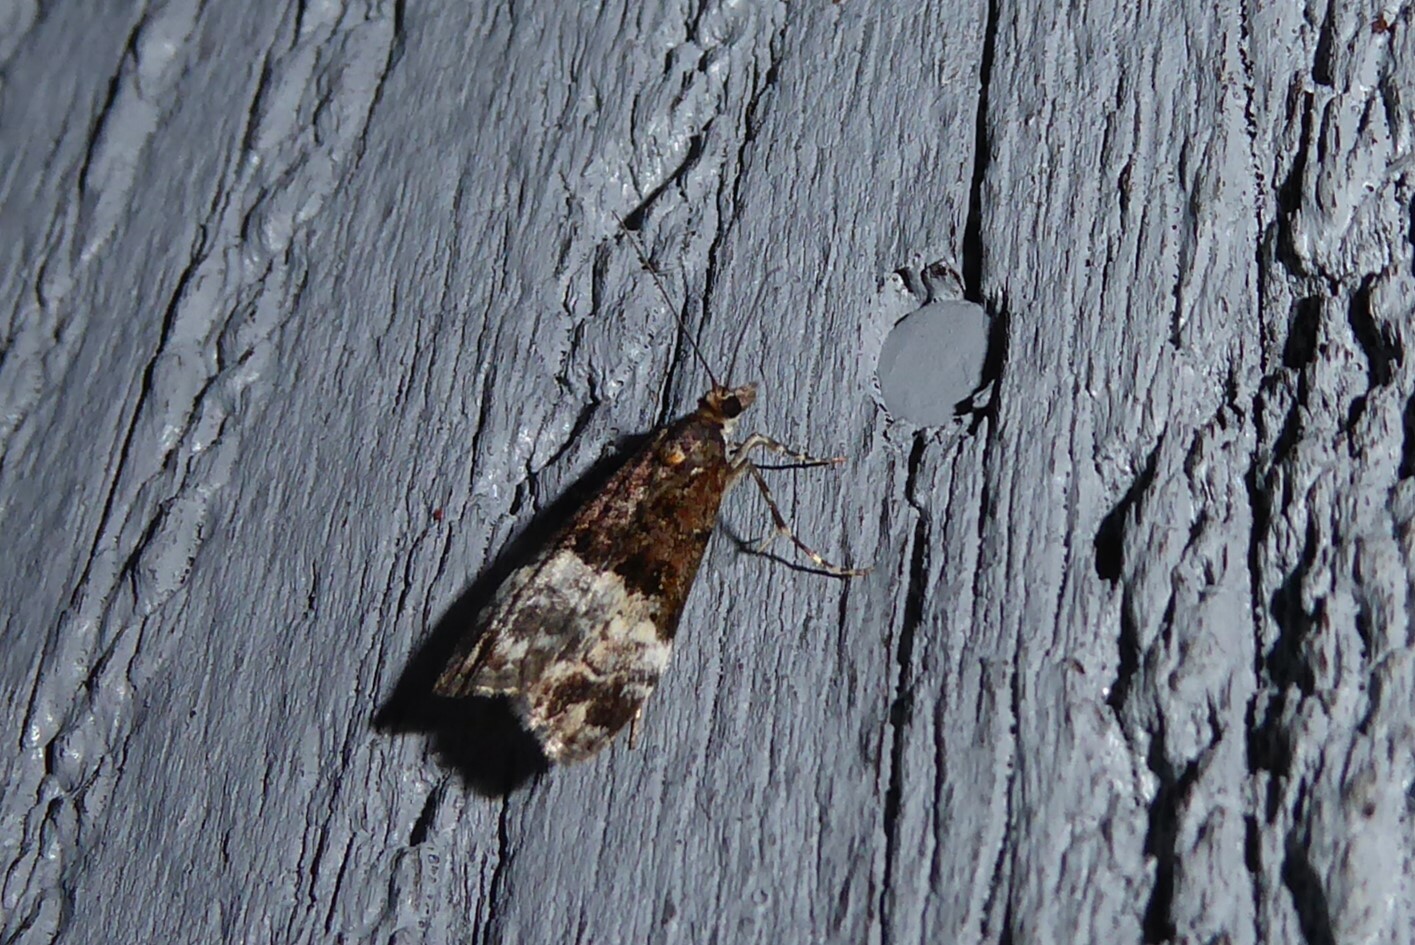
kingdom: Animalia
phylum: Arthropoda
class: Insecta
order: Lepidoptera
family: Crambidae
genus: Scoparia
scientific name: Scoparia minusculalis
